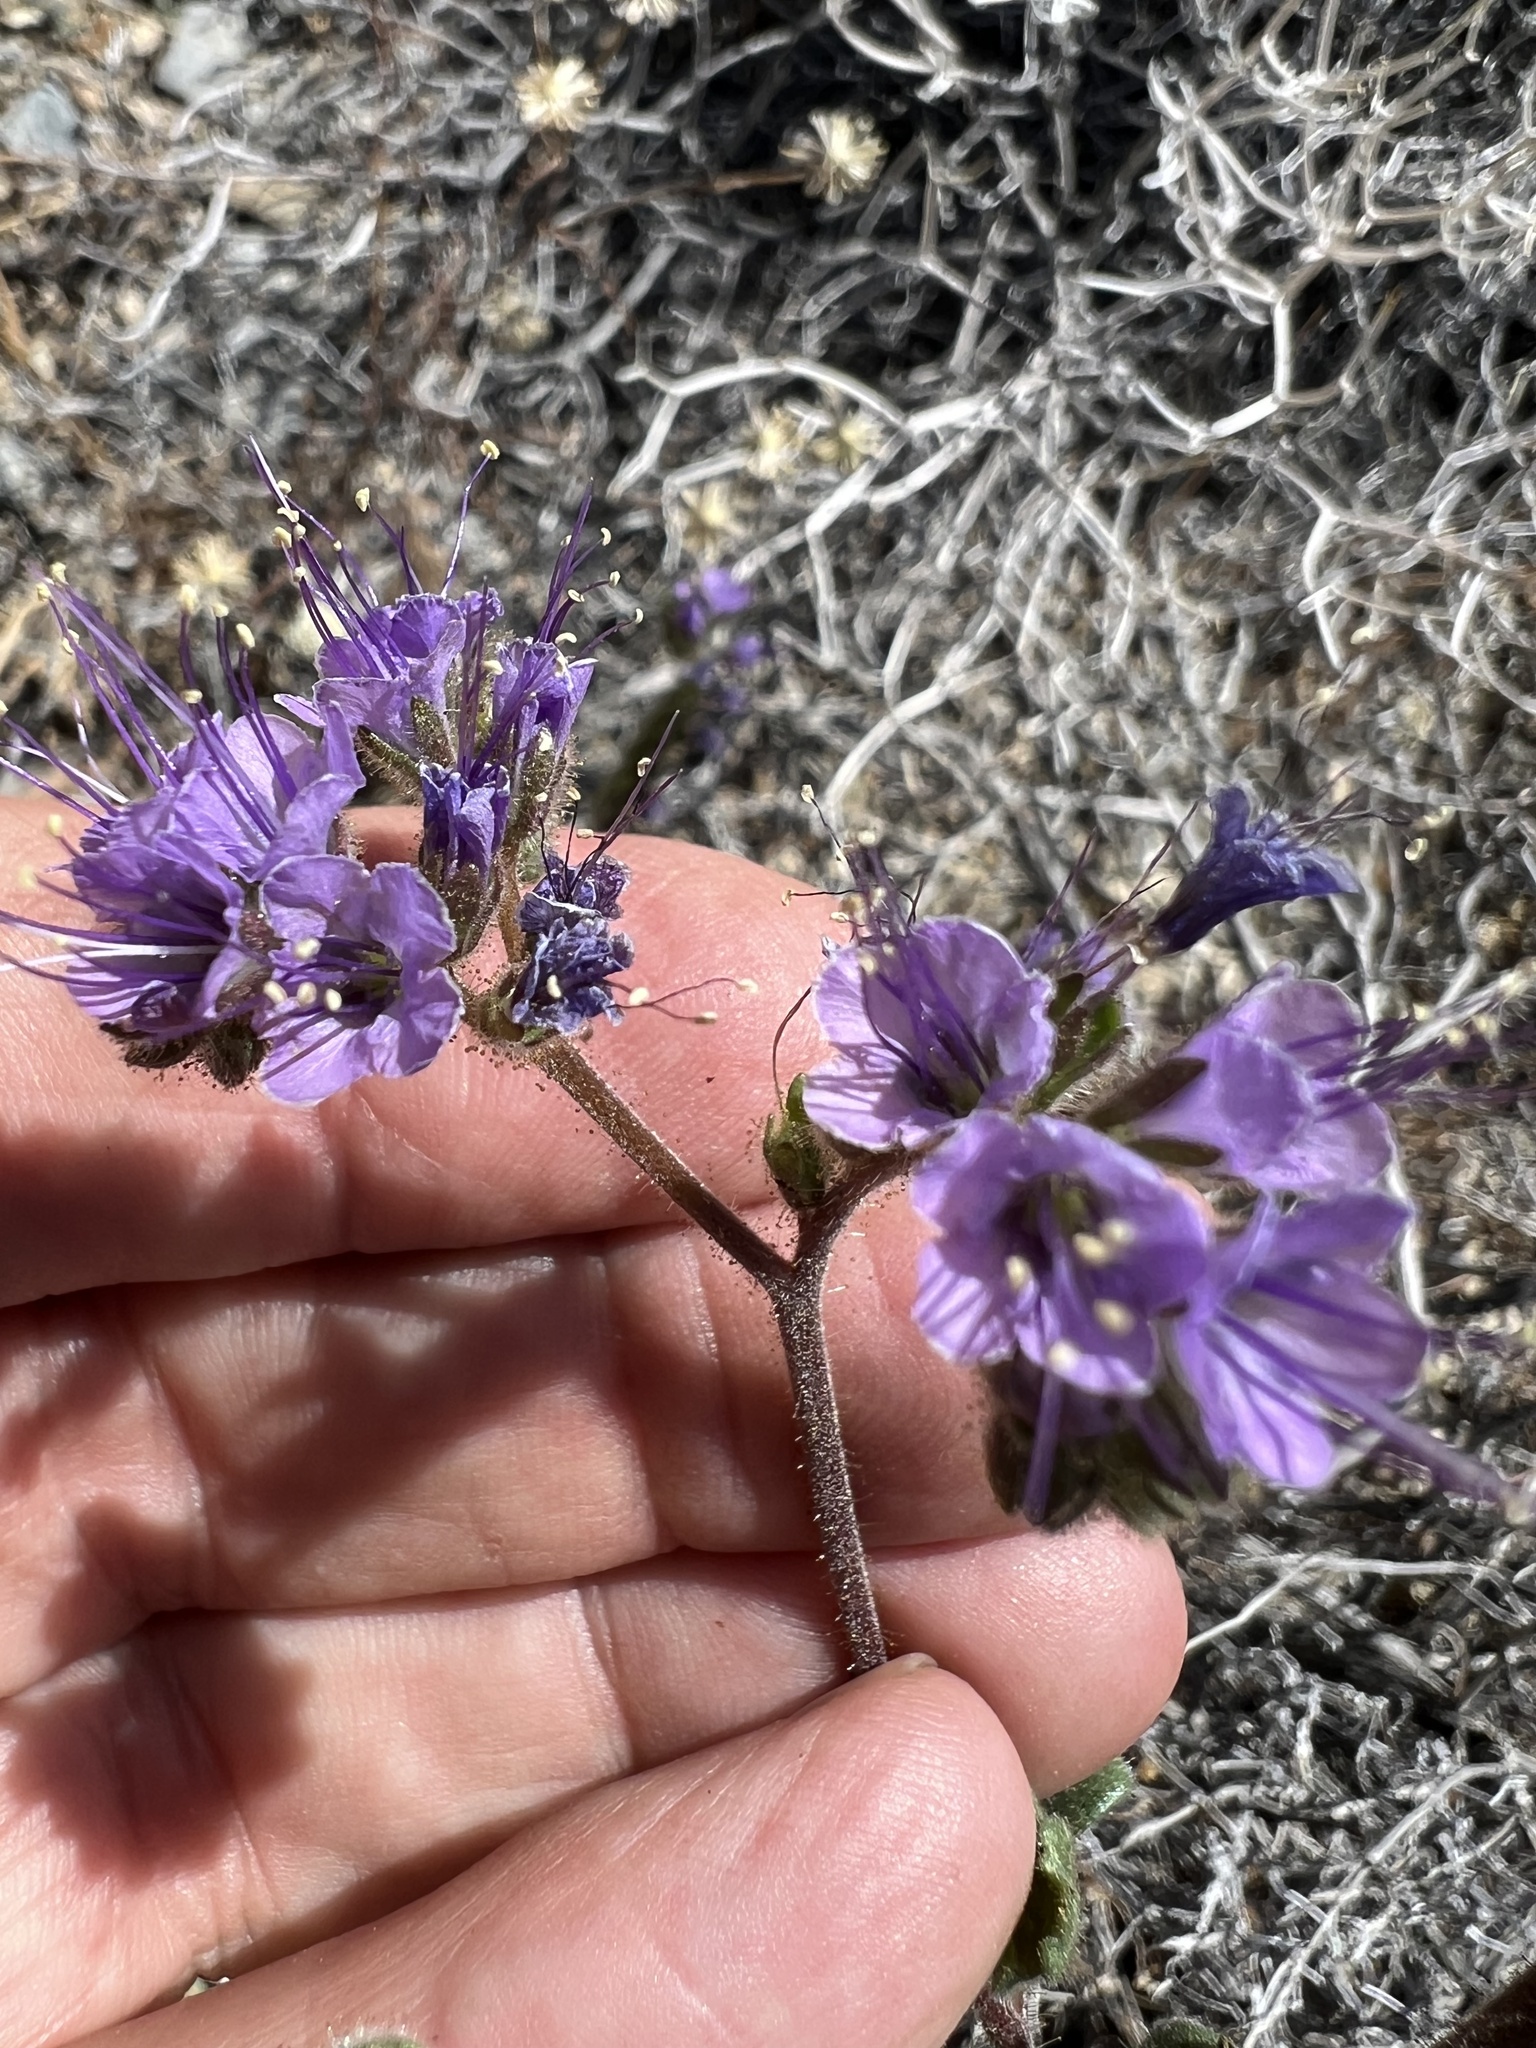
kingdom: Plantae
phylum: Tracheophyta
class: Magnoliopsida
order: Boraginales
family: Hydrophyllaceae
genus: Phacelia
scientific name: Phacelia crenulata
